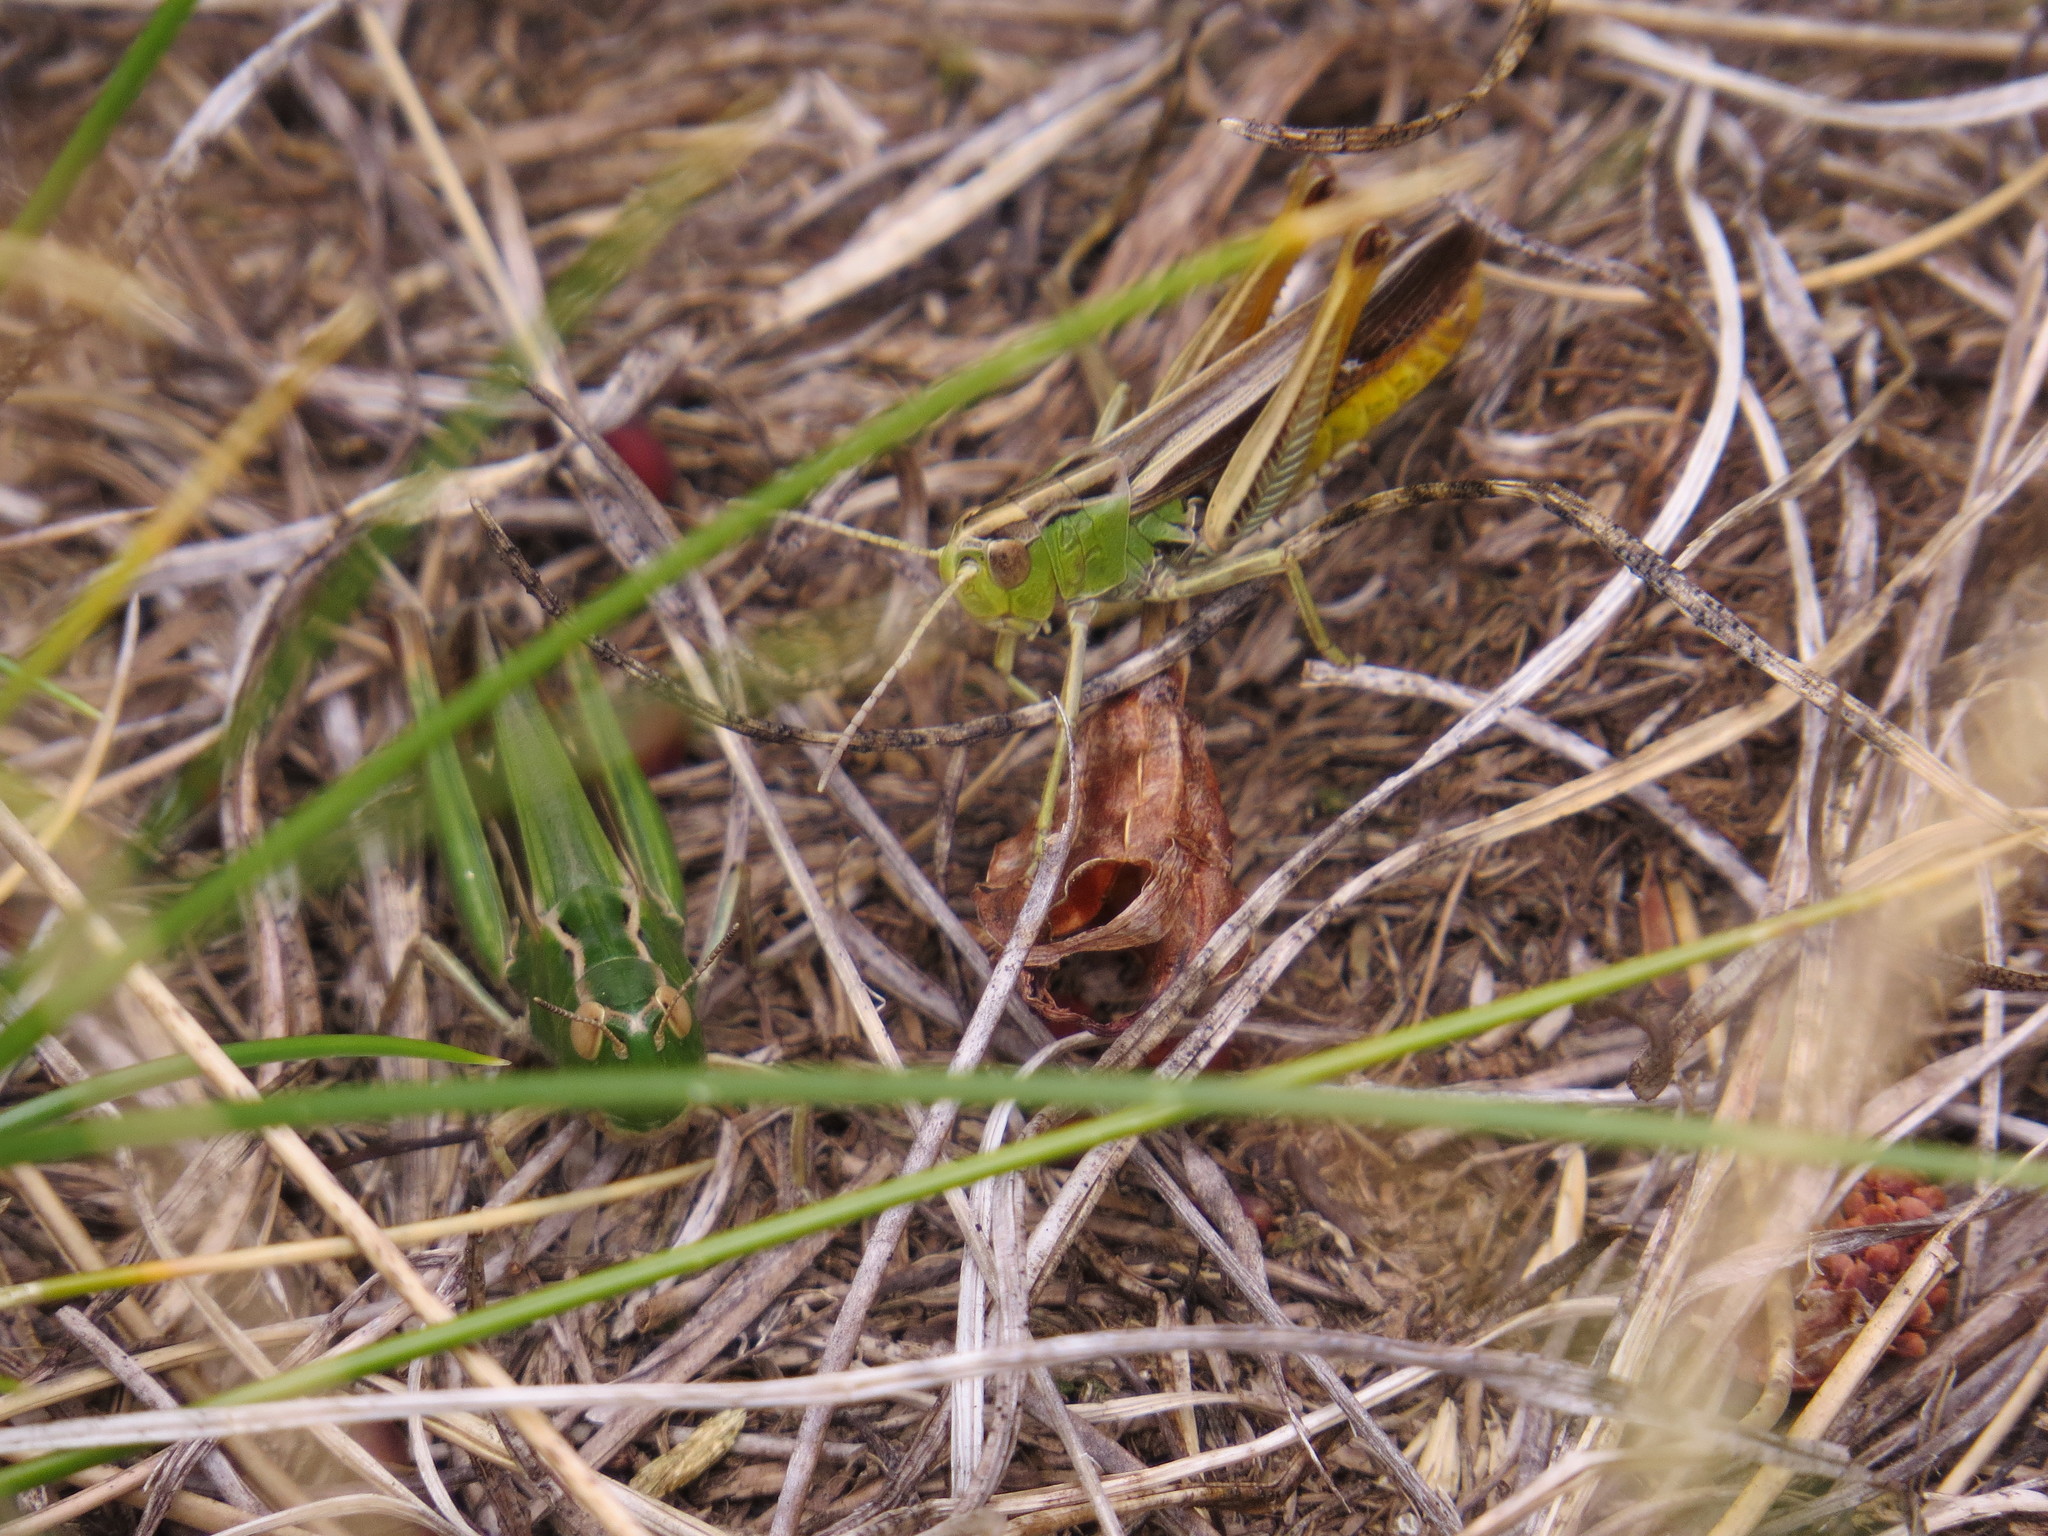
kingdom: Animalia
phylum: Arthropoda
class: Insecta
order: Orthoptera
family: Acrididae
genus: Stenobothrus
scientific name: Stenobothrus lineatus
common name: Stripe-winged grasshopper
